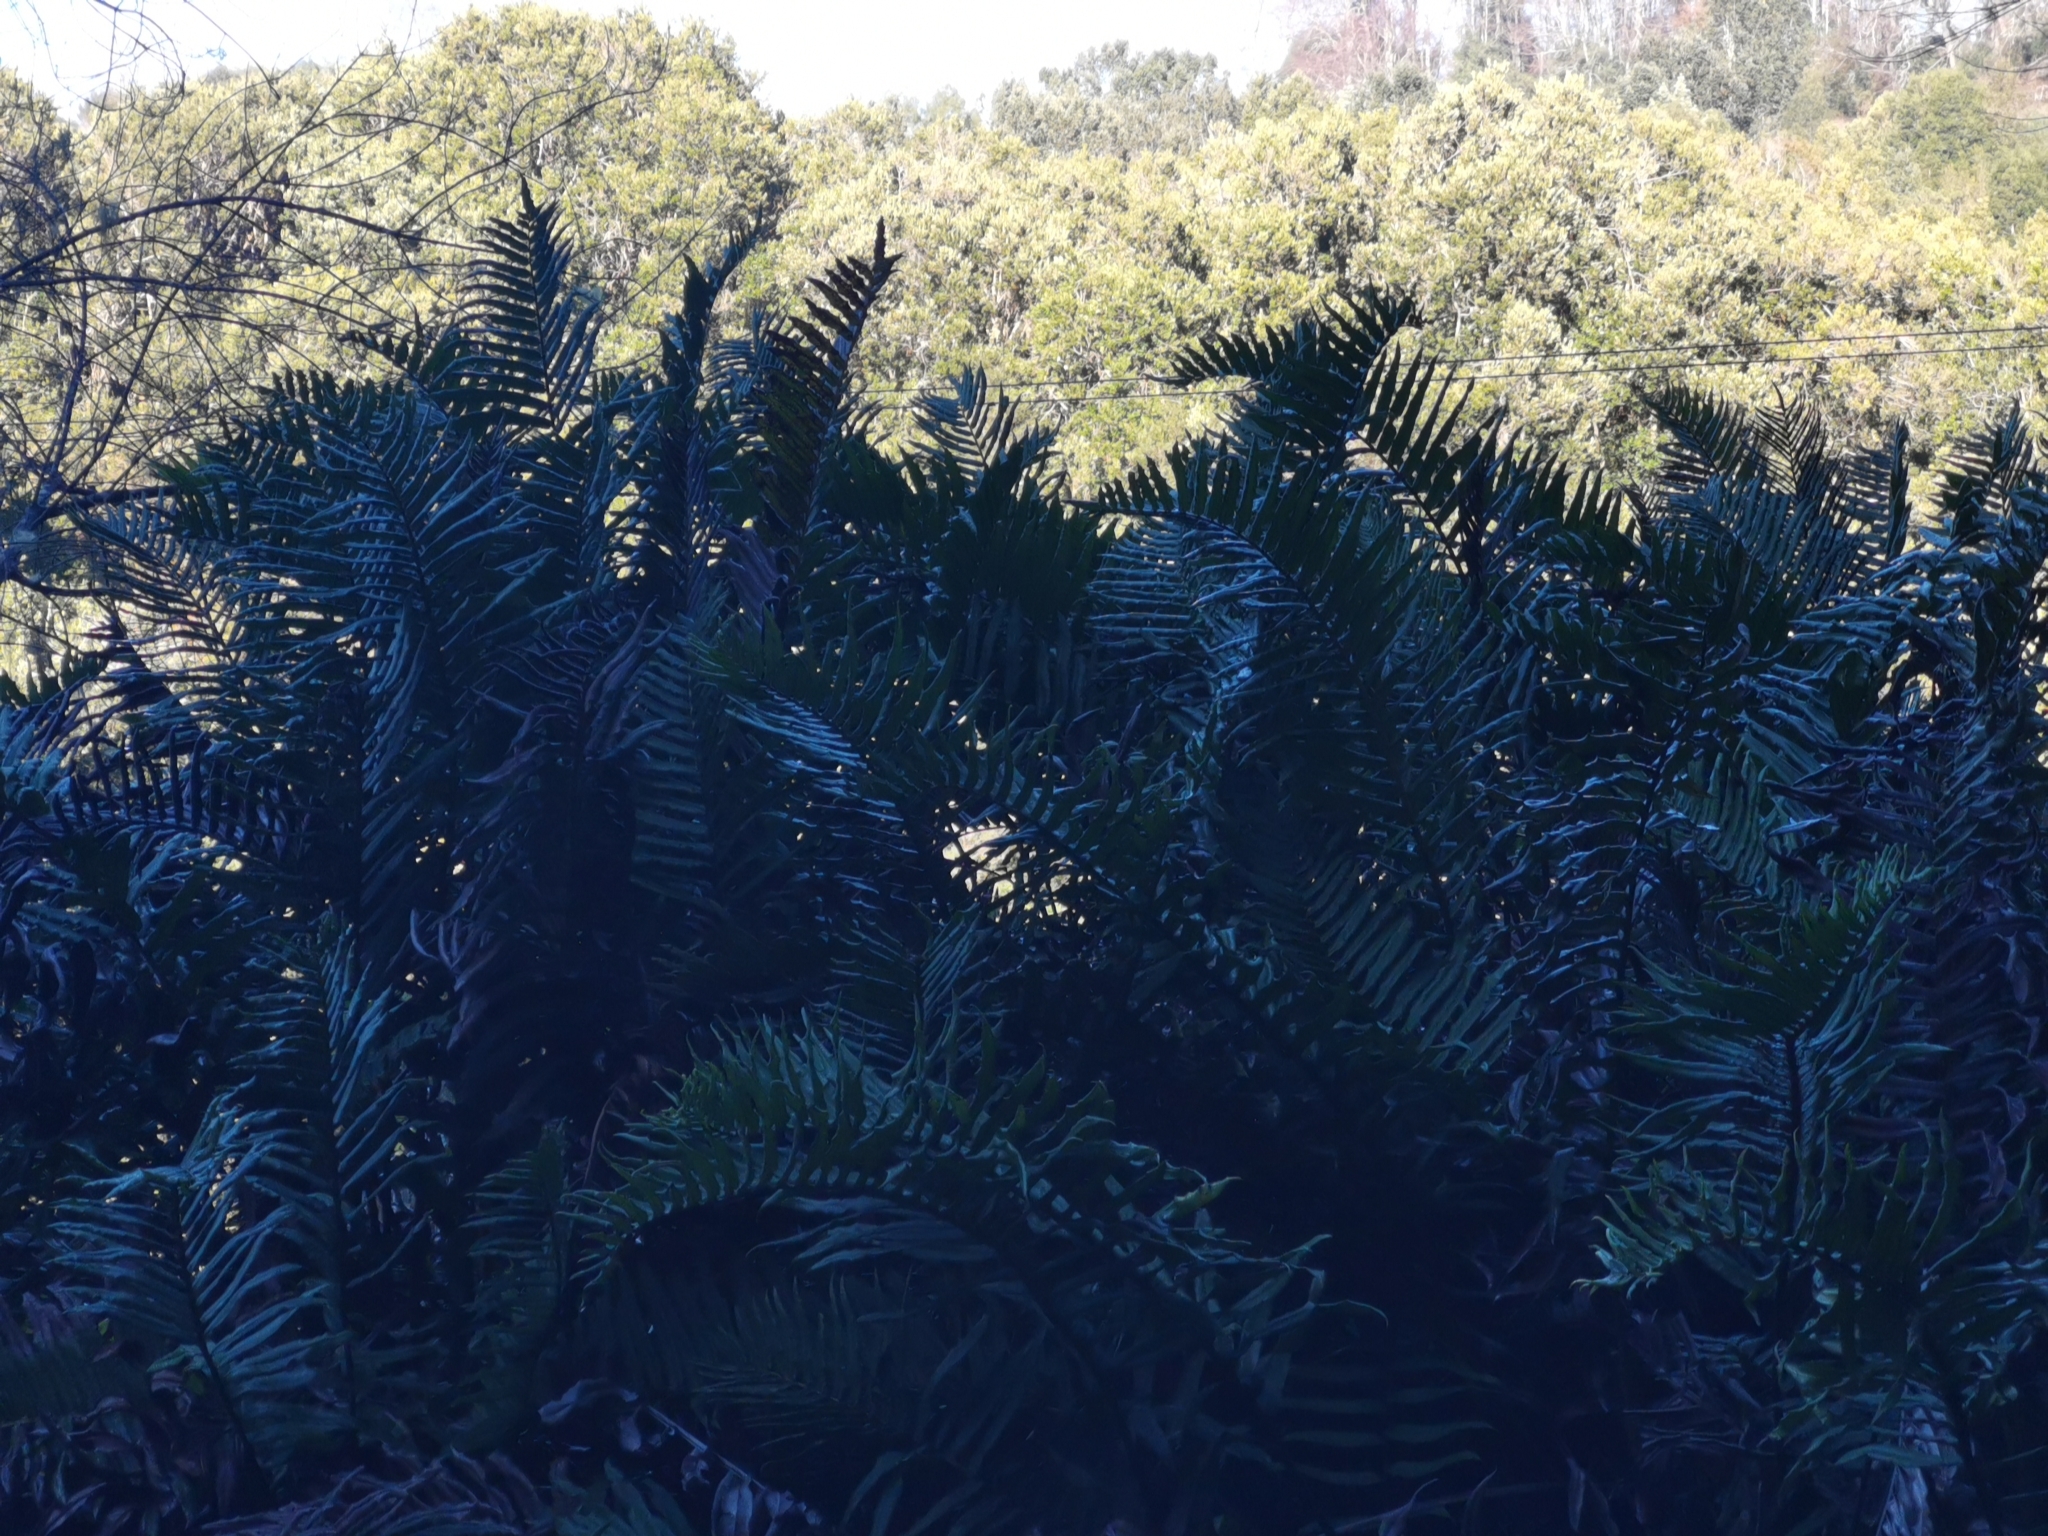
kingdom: Plantae
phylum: Tracheophyta
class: Polypodiopsida
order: Polypodiales
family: Blechnaceae
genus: Parablechnum
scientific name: Parablechnum chilense
